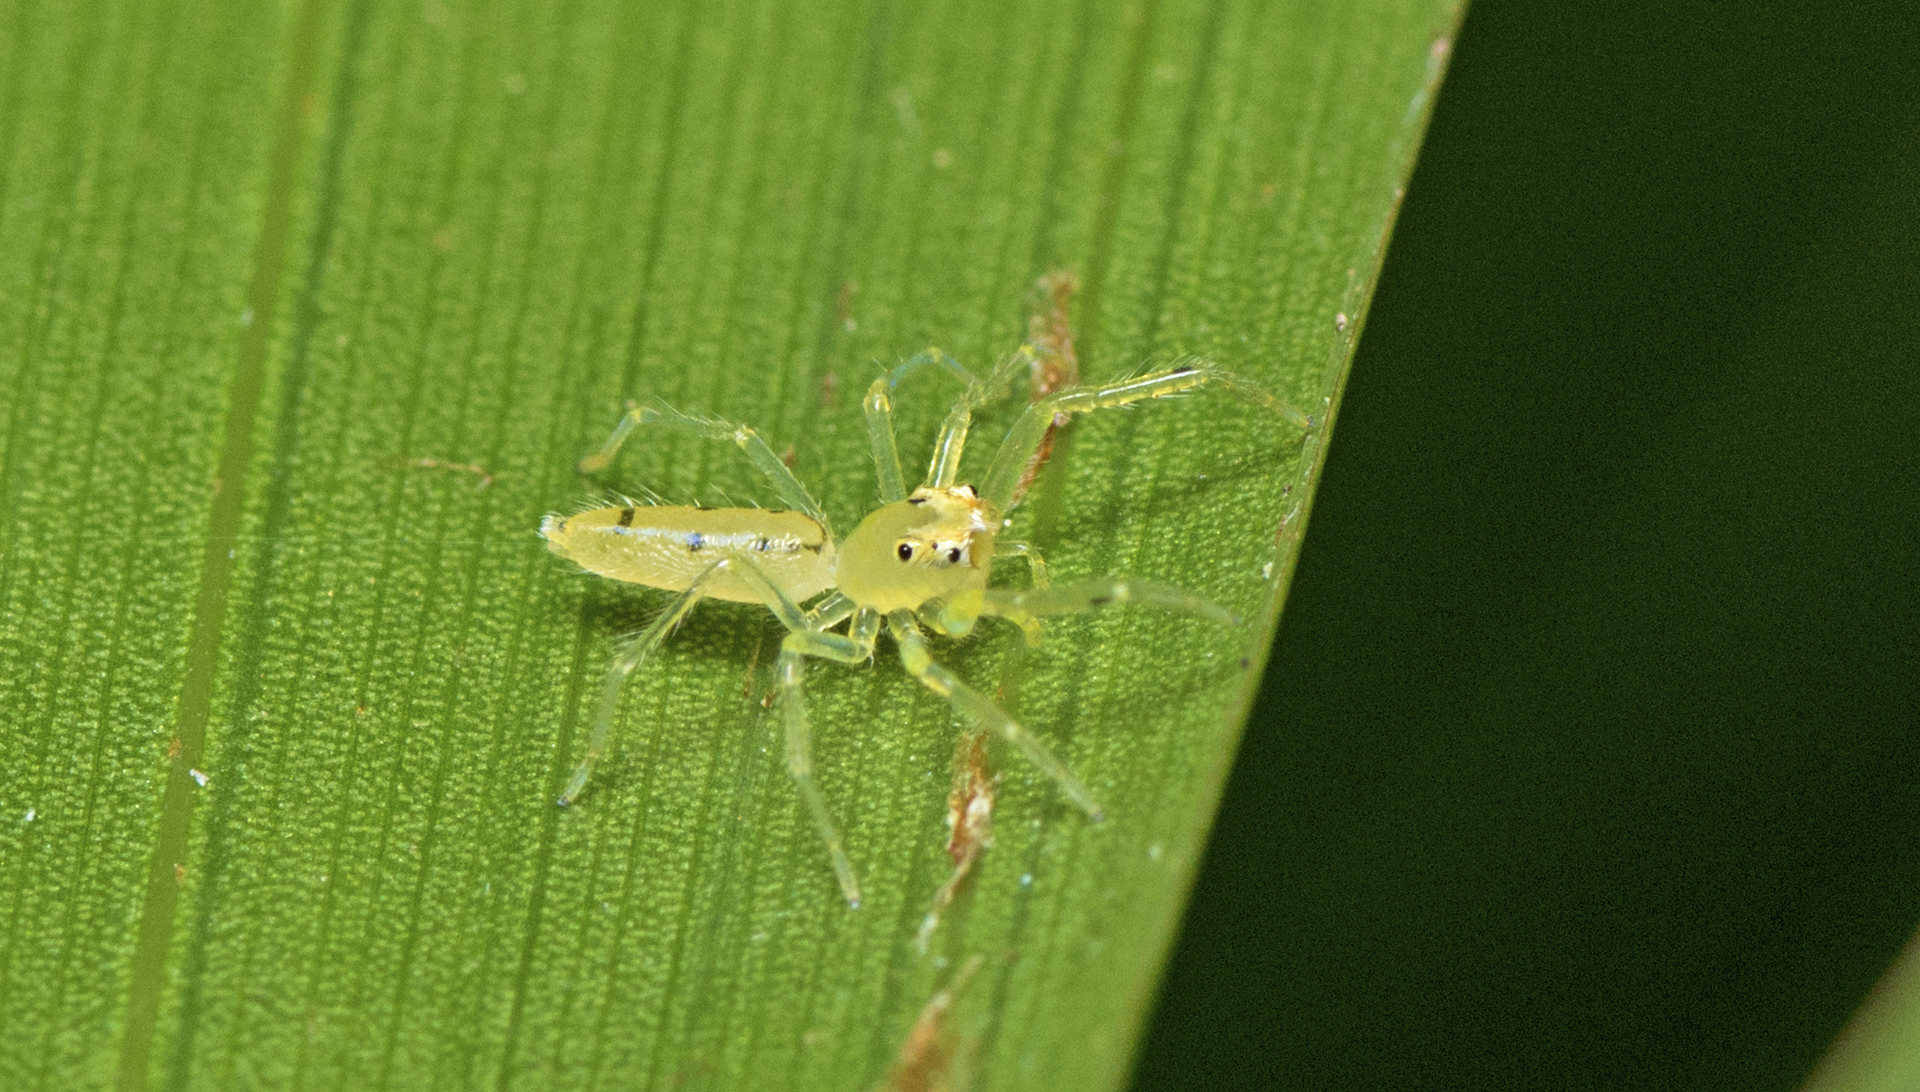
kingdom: Animalia
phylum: Arthropoda
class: Arachnida
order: Araneae
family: Salticidae
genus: Astilodes
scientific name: Astilodes mariae
